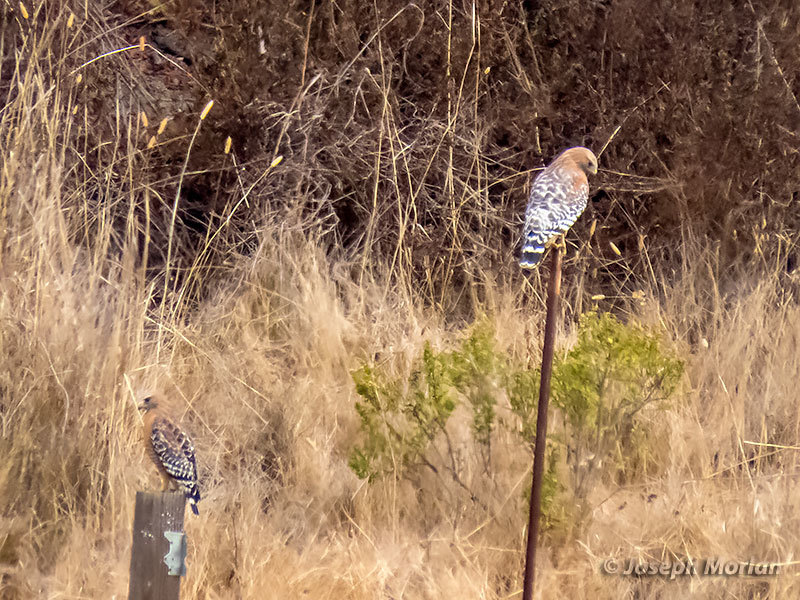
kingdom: Animalia
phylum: Chordata
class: Aves
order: Accipitriformes
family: Accipitridae
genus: Buteo
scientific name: Buteo lineatus
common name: Red-shouldered hawk
